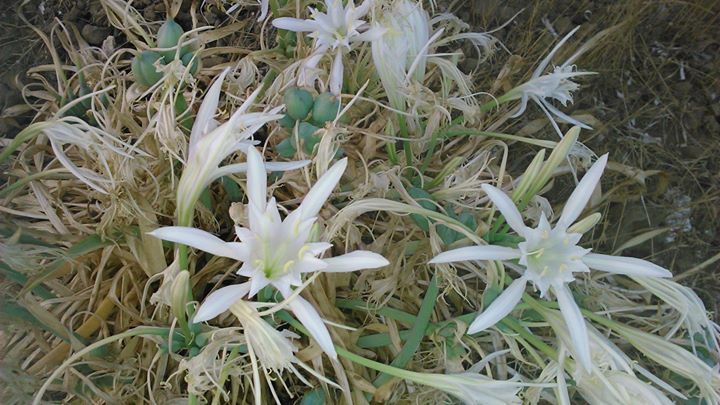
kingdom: Plantae
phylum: Tracheophyta
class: Liliopsida
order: Asparagales
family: Amaryllidaceae
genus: Pancratium
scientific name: Pancratium maritimum
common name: Sea-daffodil
